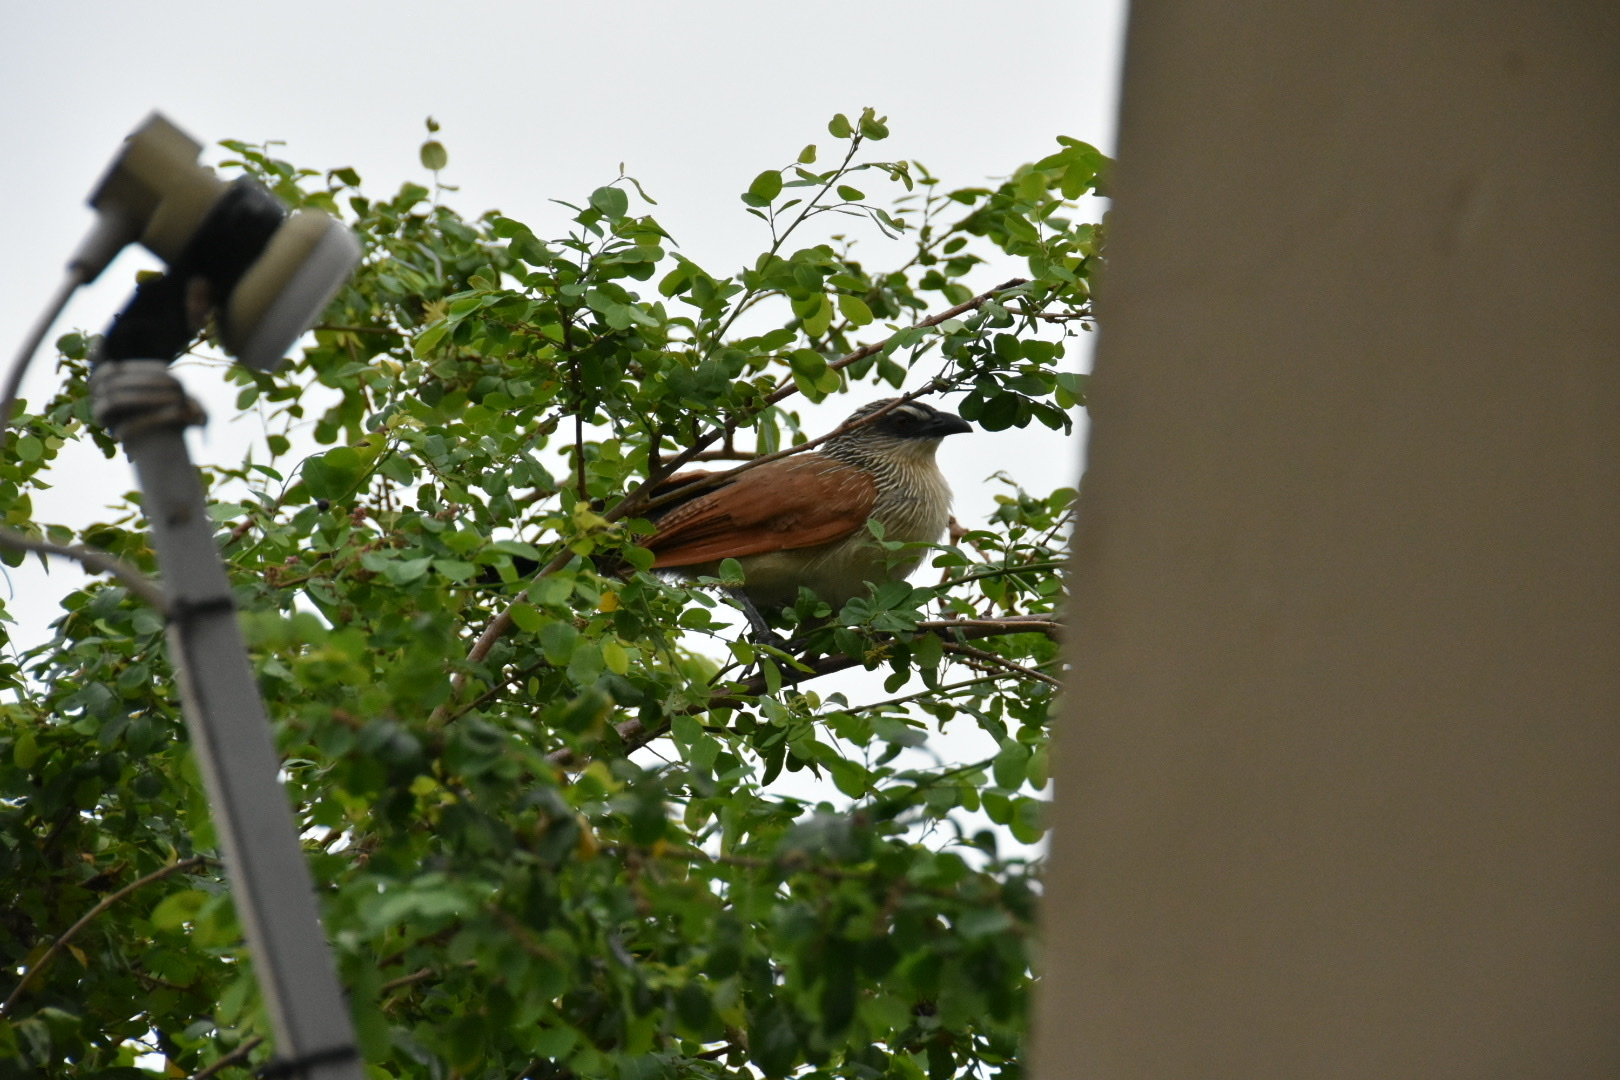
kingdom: Animalia
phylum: Chordata
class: Aves
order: Cuculiformes
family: Cuculidae
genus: Centropus
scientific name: Centropus superciliosus
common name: White-browed coucal
